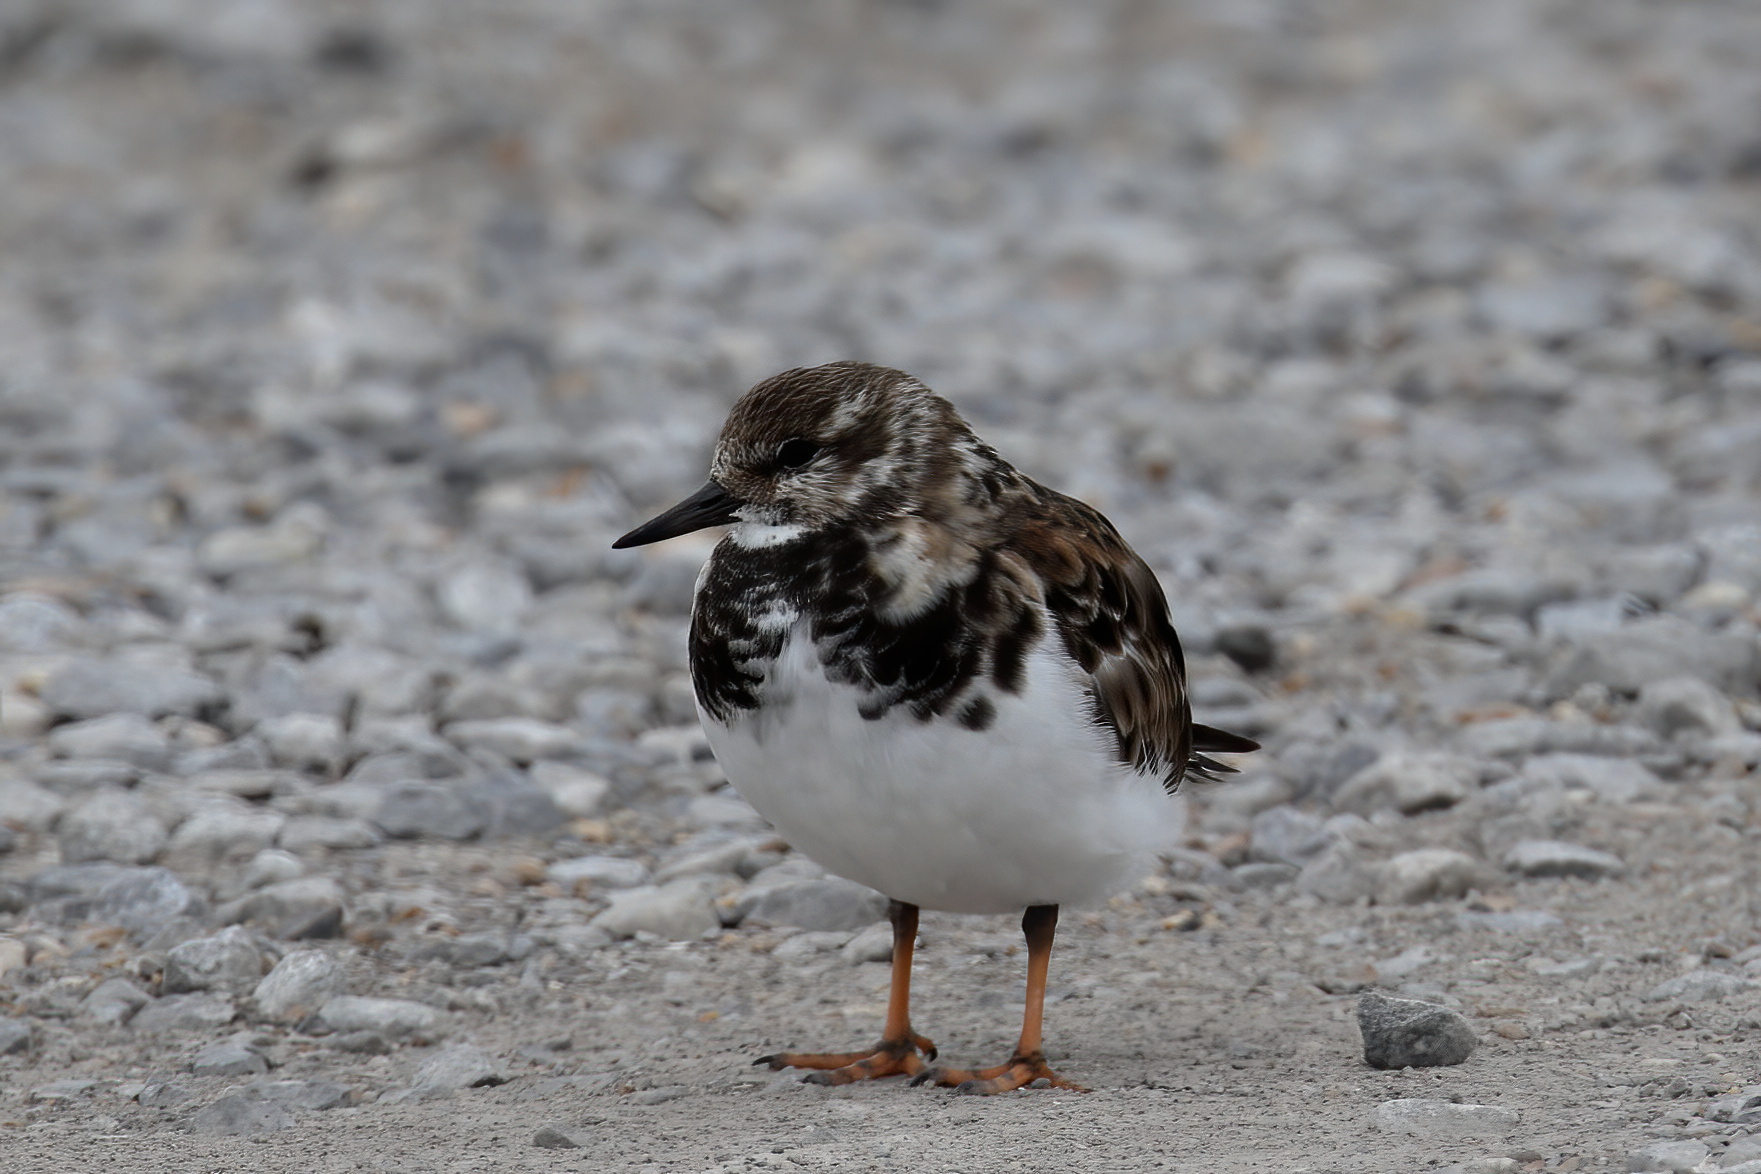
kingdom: Animalia
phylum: Chordata
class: Aves
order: Charadriiformes
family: Scolopacidae
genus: Arenaria
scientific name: Arenaria interpres
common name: Ruddy turnstone
